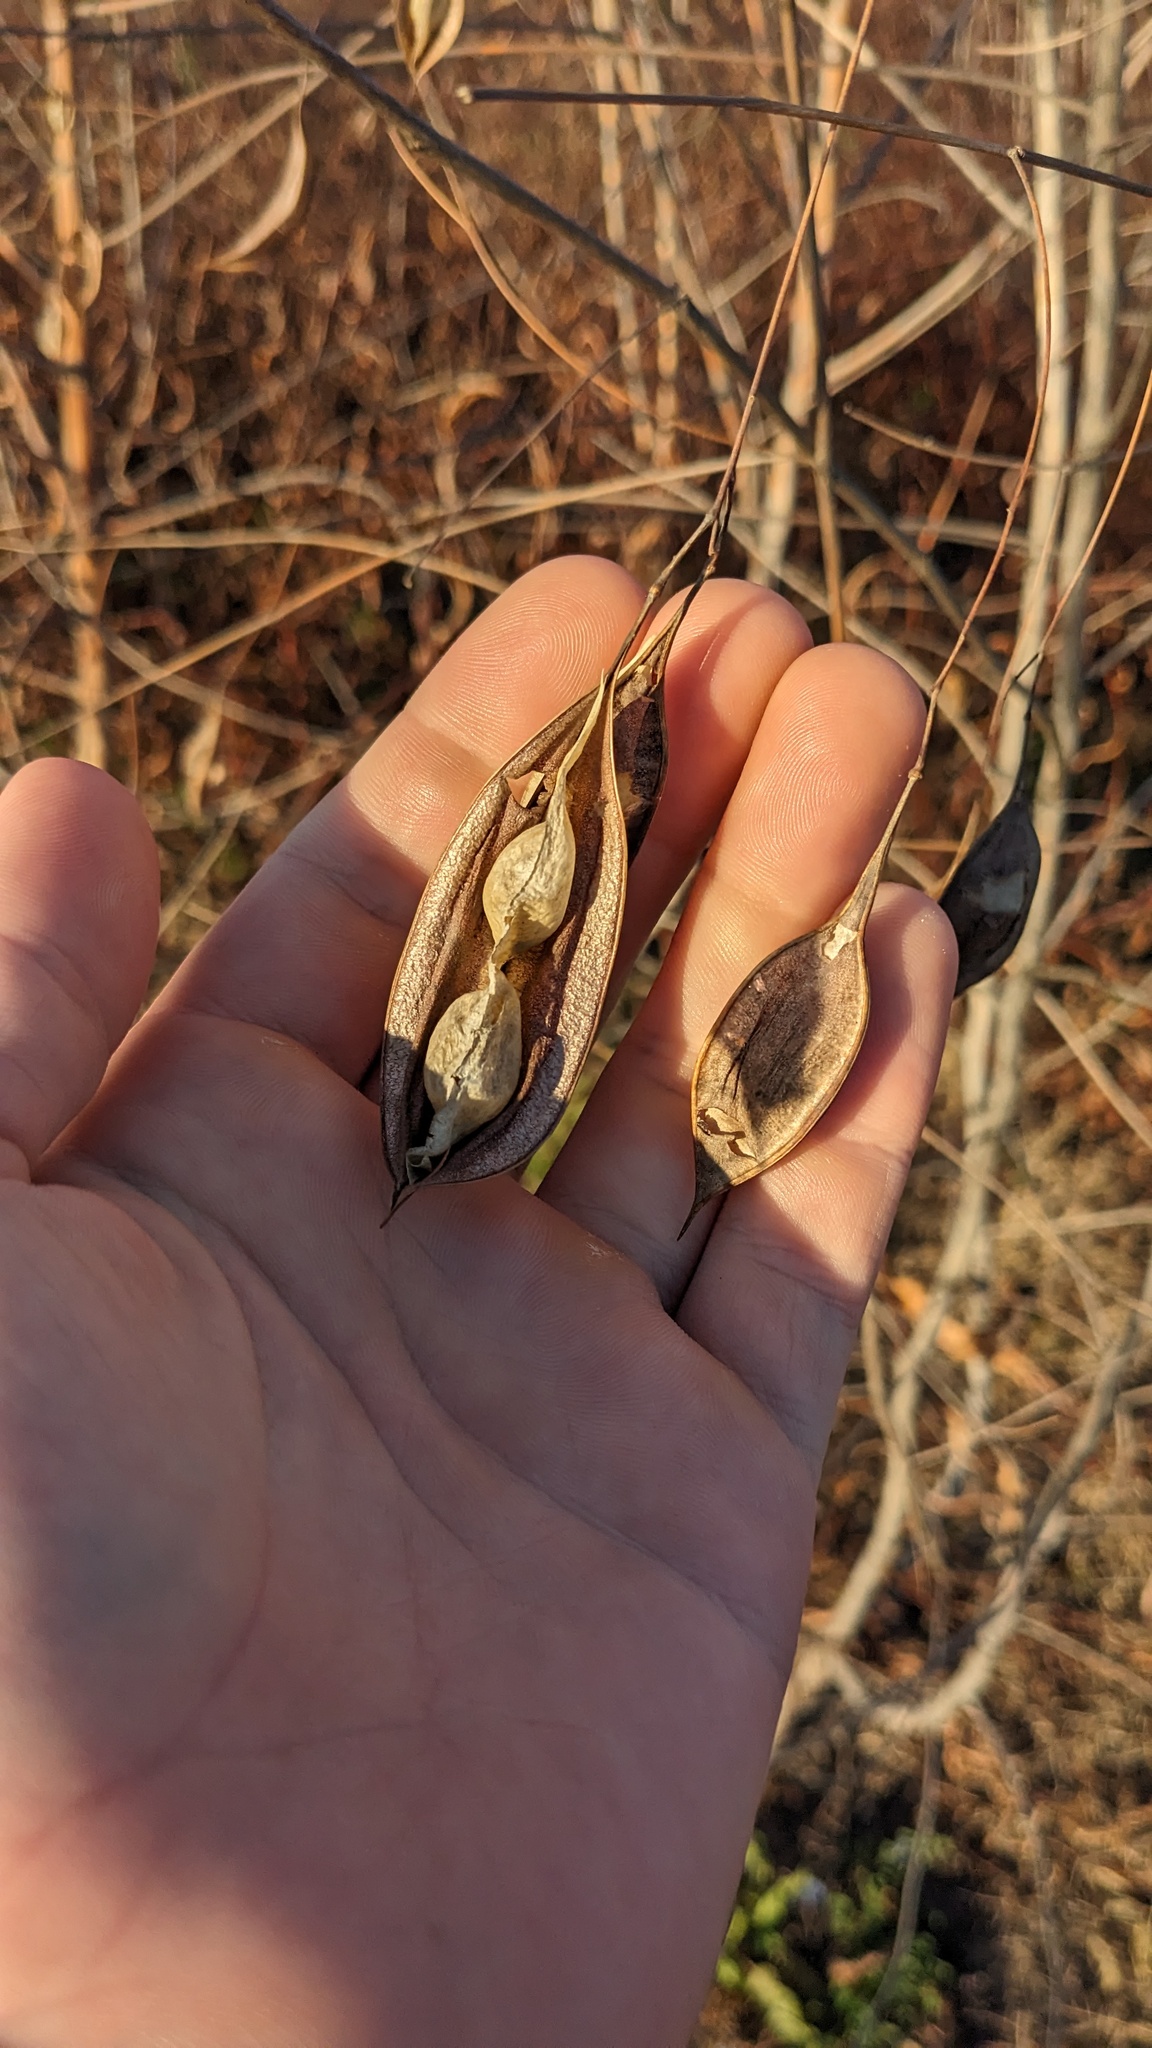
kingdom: Plantae
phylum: Tracheophyta
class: Magnoliopsida
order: Fabales
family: Fabaceae
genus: Sesbania
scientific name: Sesbania vesicaria
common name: Bagpod
